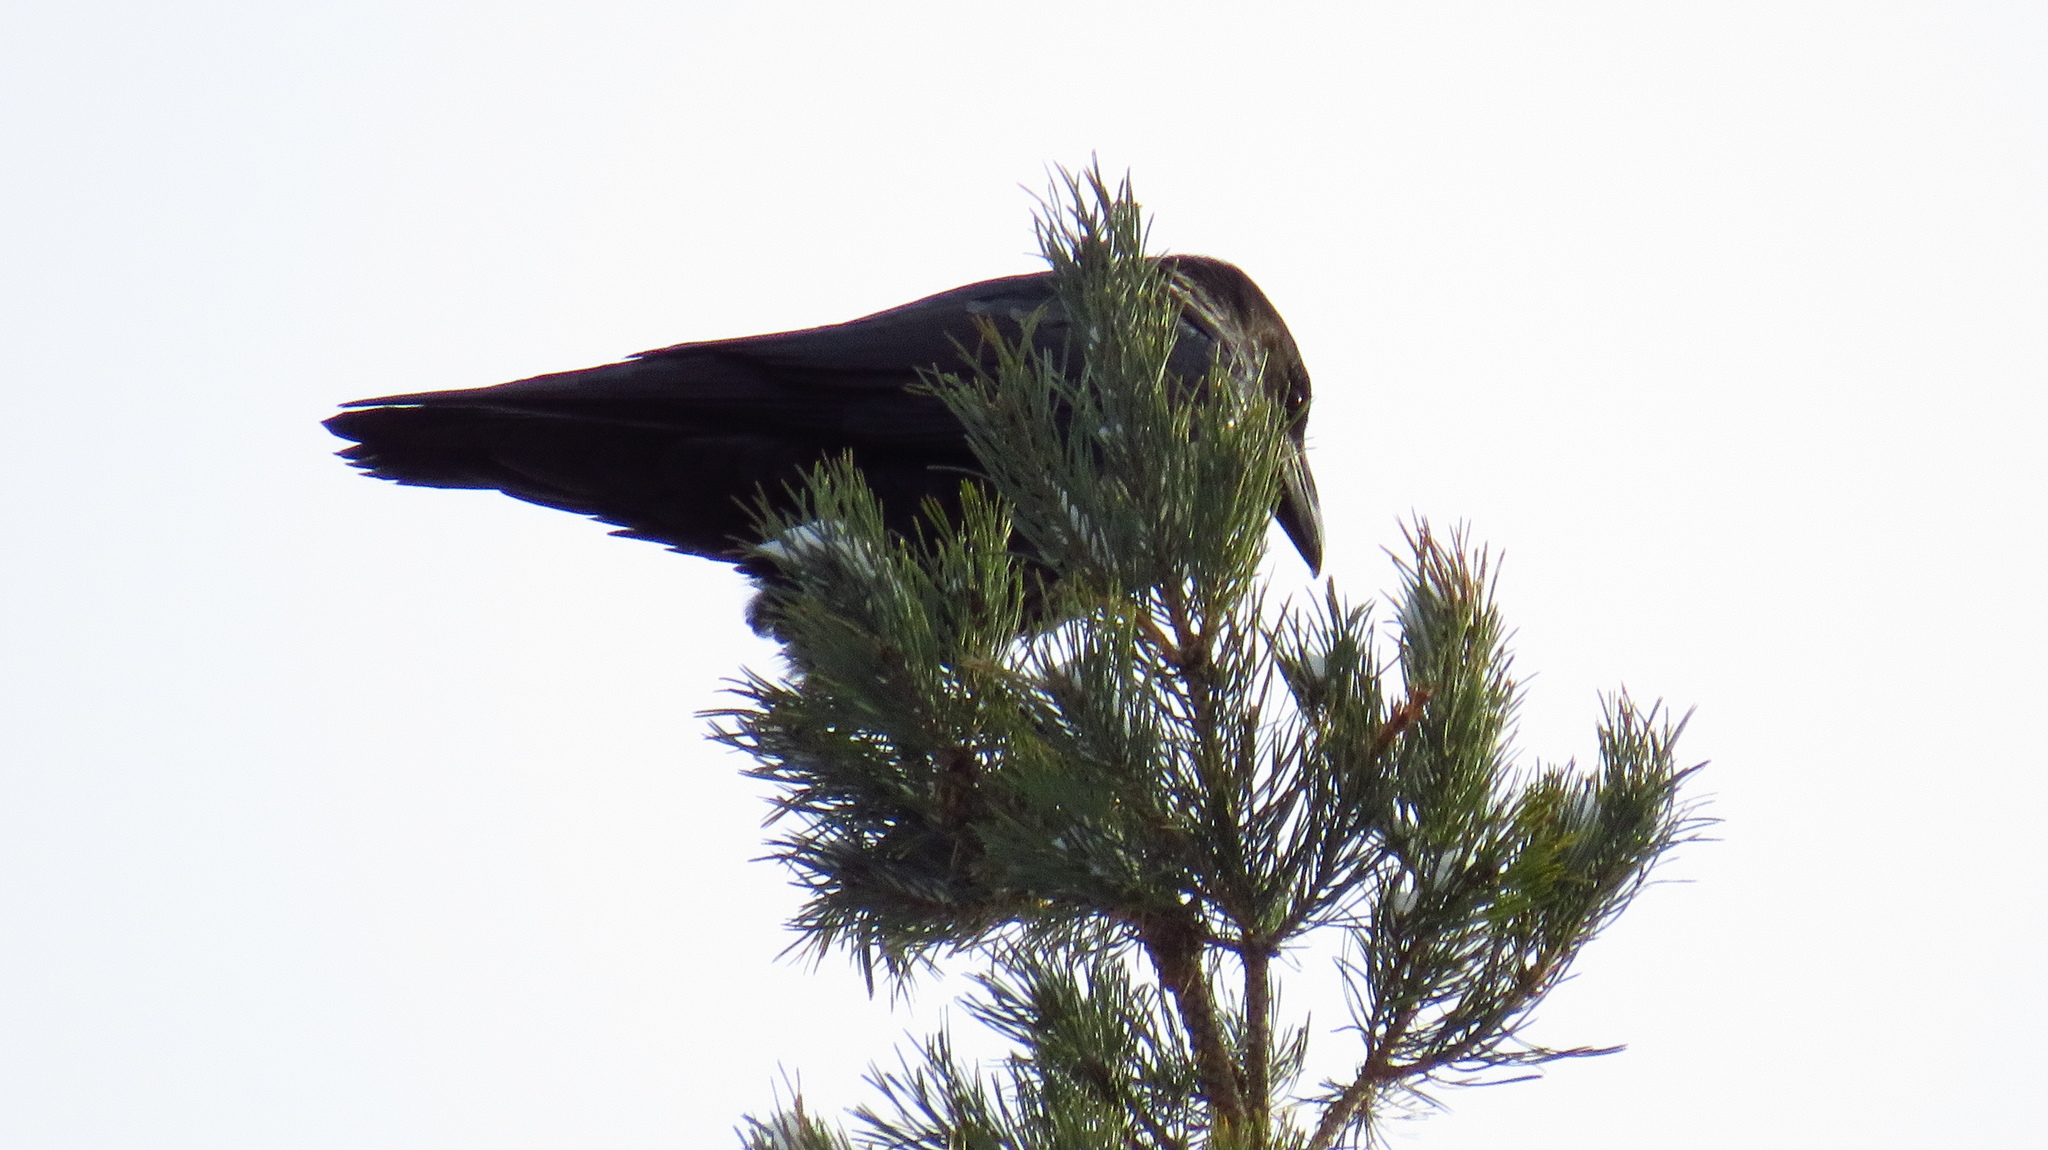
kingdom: Animalia
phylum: Chordata
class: Aves
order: Passeriformes
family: Corvidae
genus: Corvus
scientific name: Corvus corax
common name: Common raven
